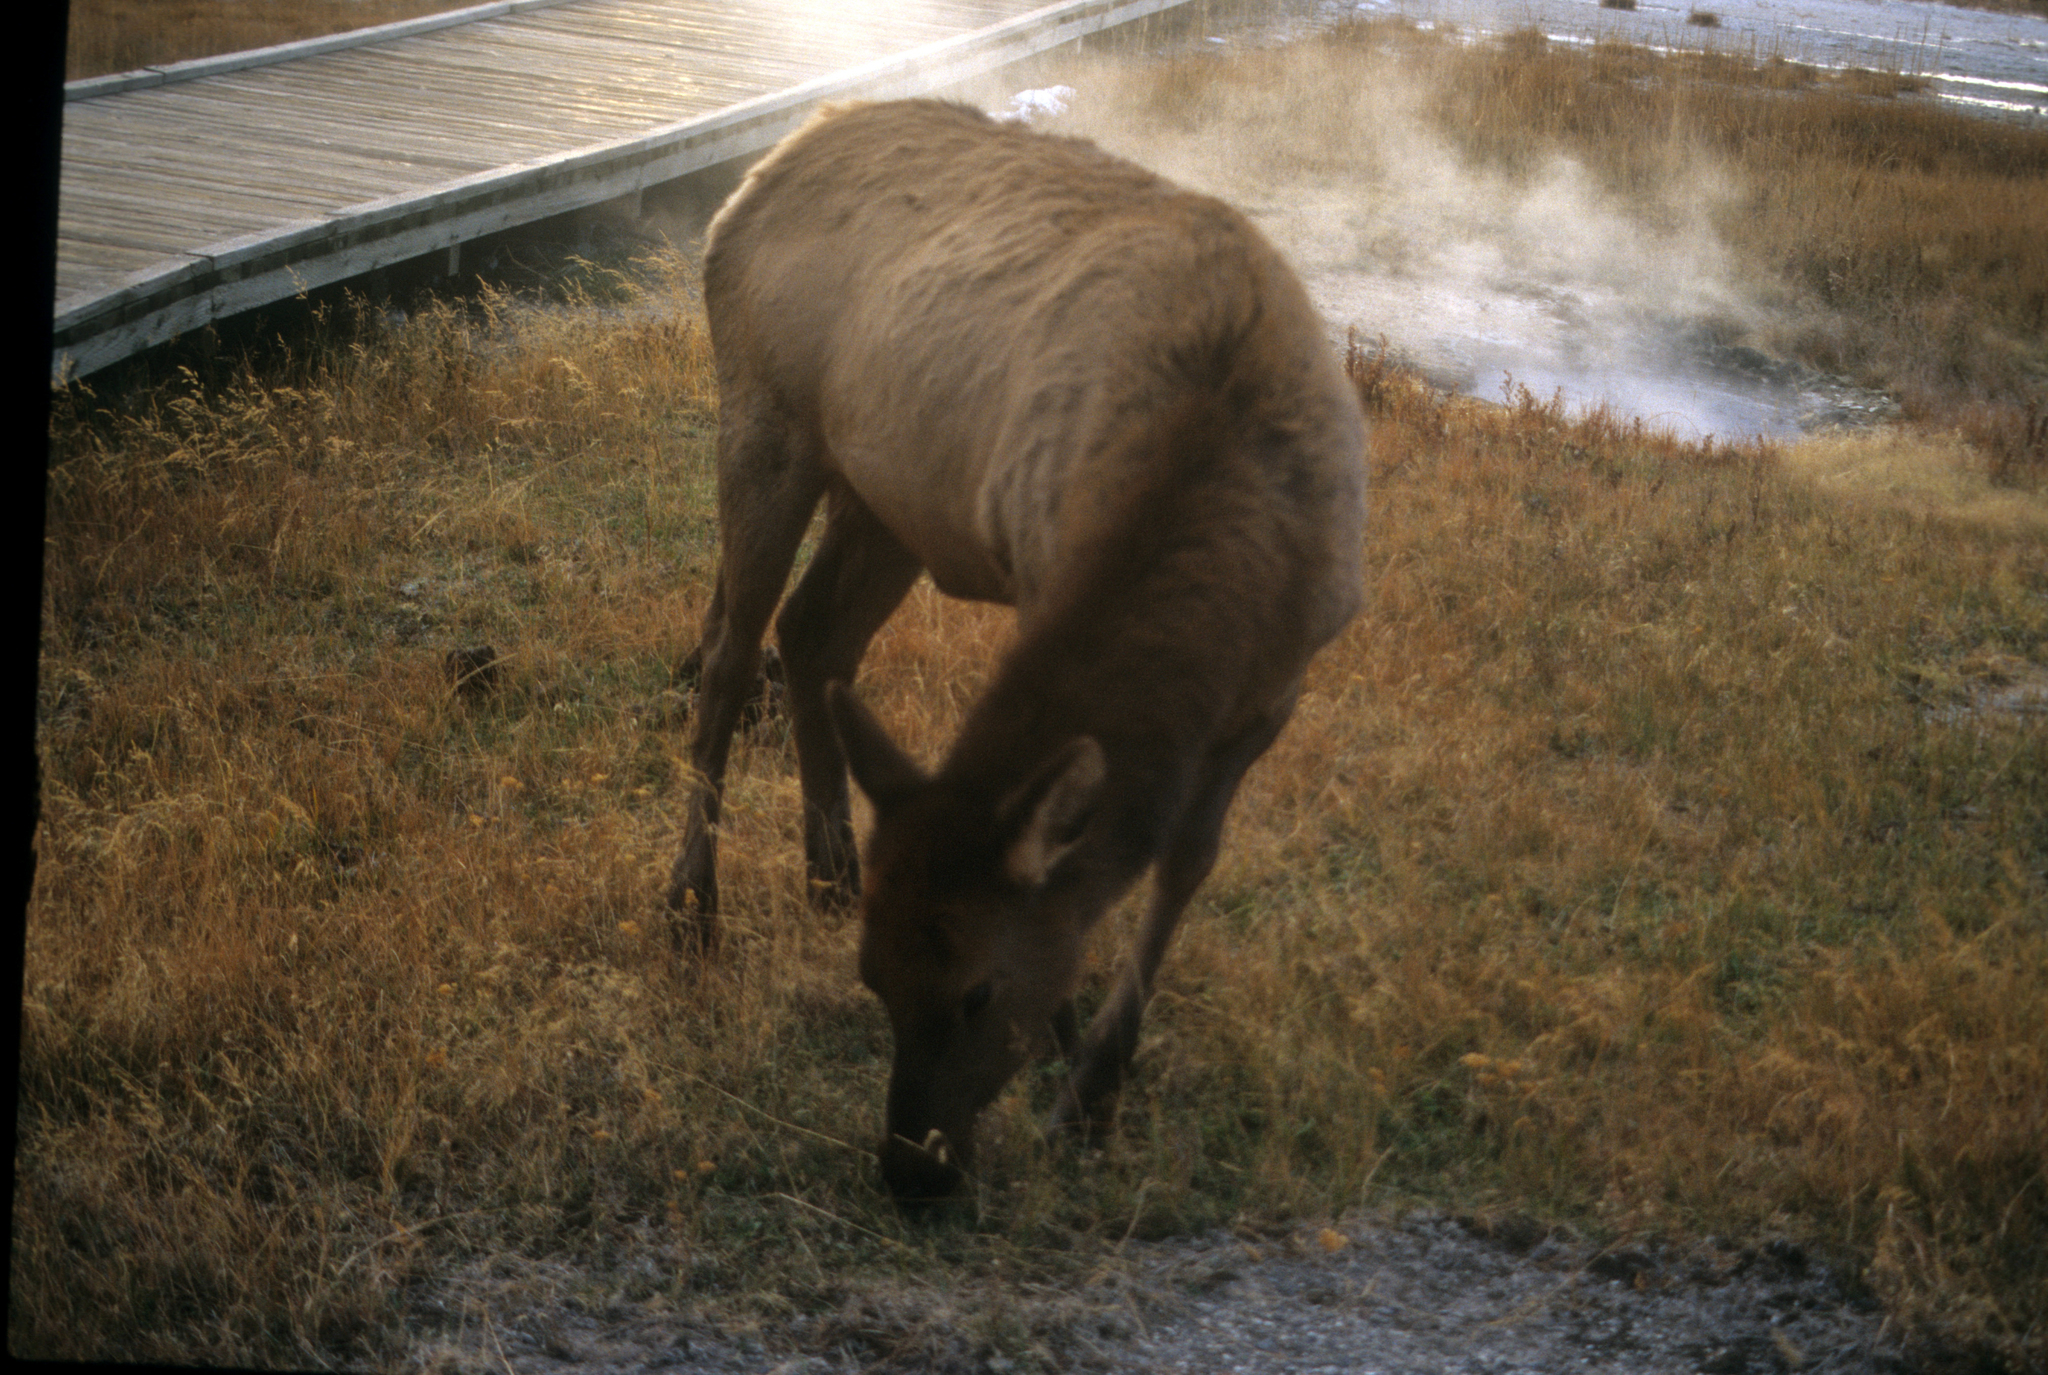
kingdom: Animalia
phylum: Chordata
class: Mammalia
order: Artiodactyla
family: Cervidae
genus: Cervus
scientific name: Cervus elaphus
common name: Red deer
